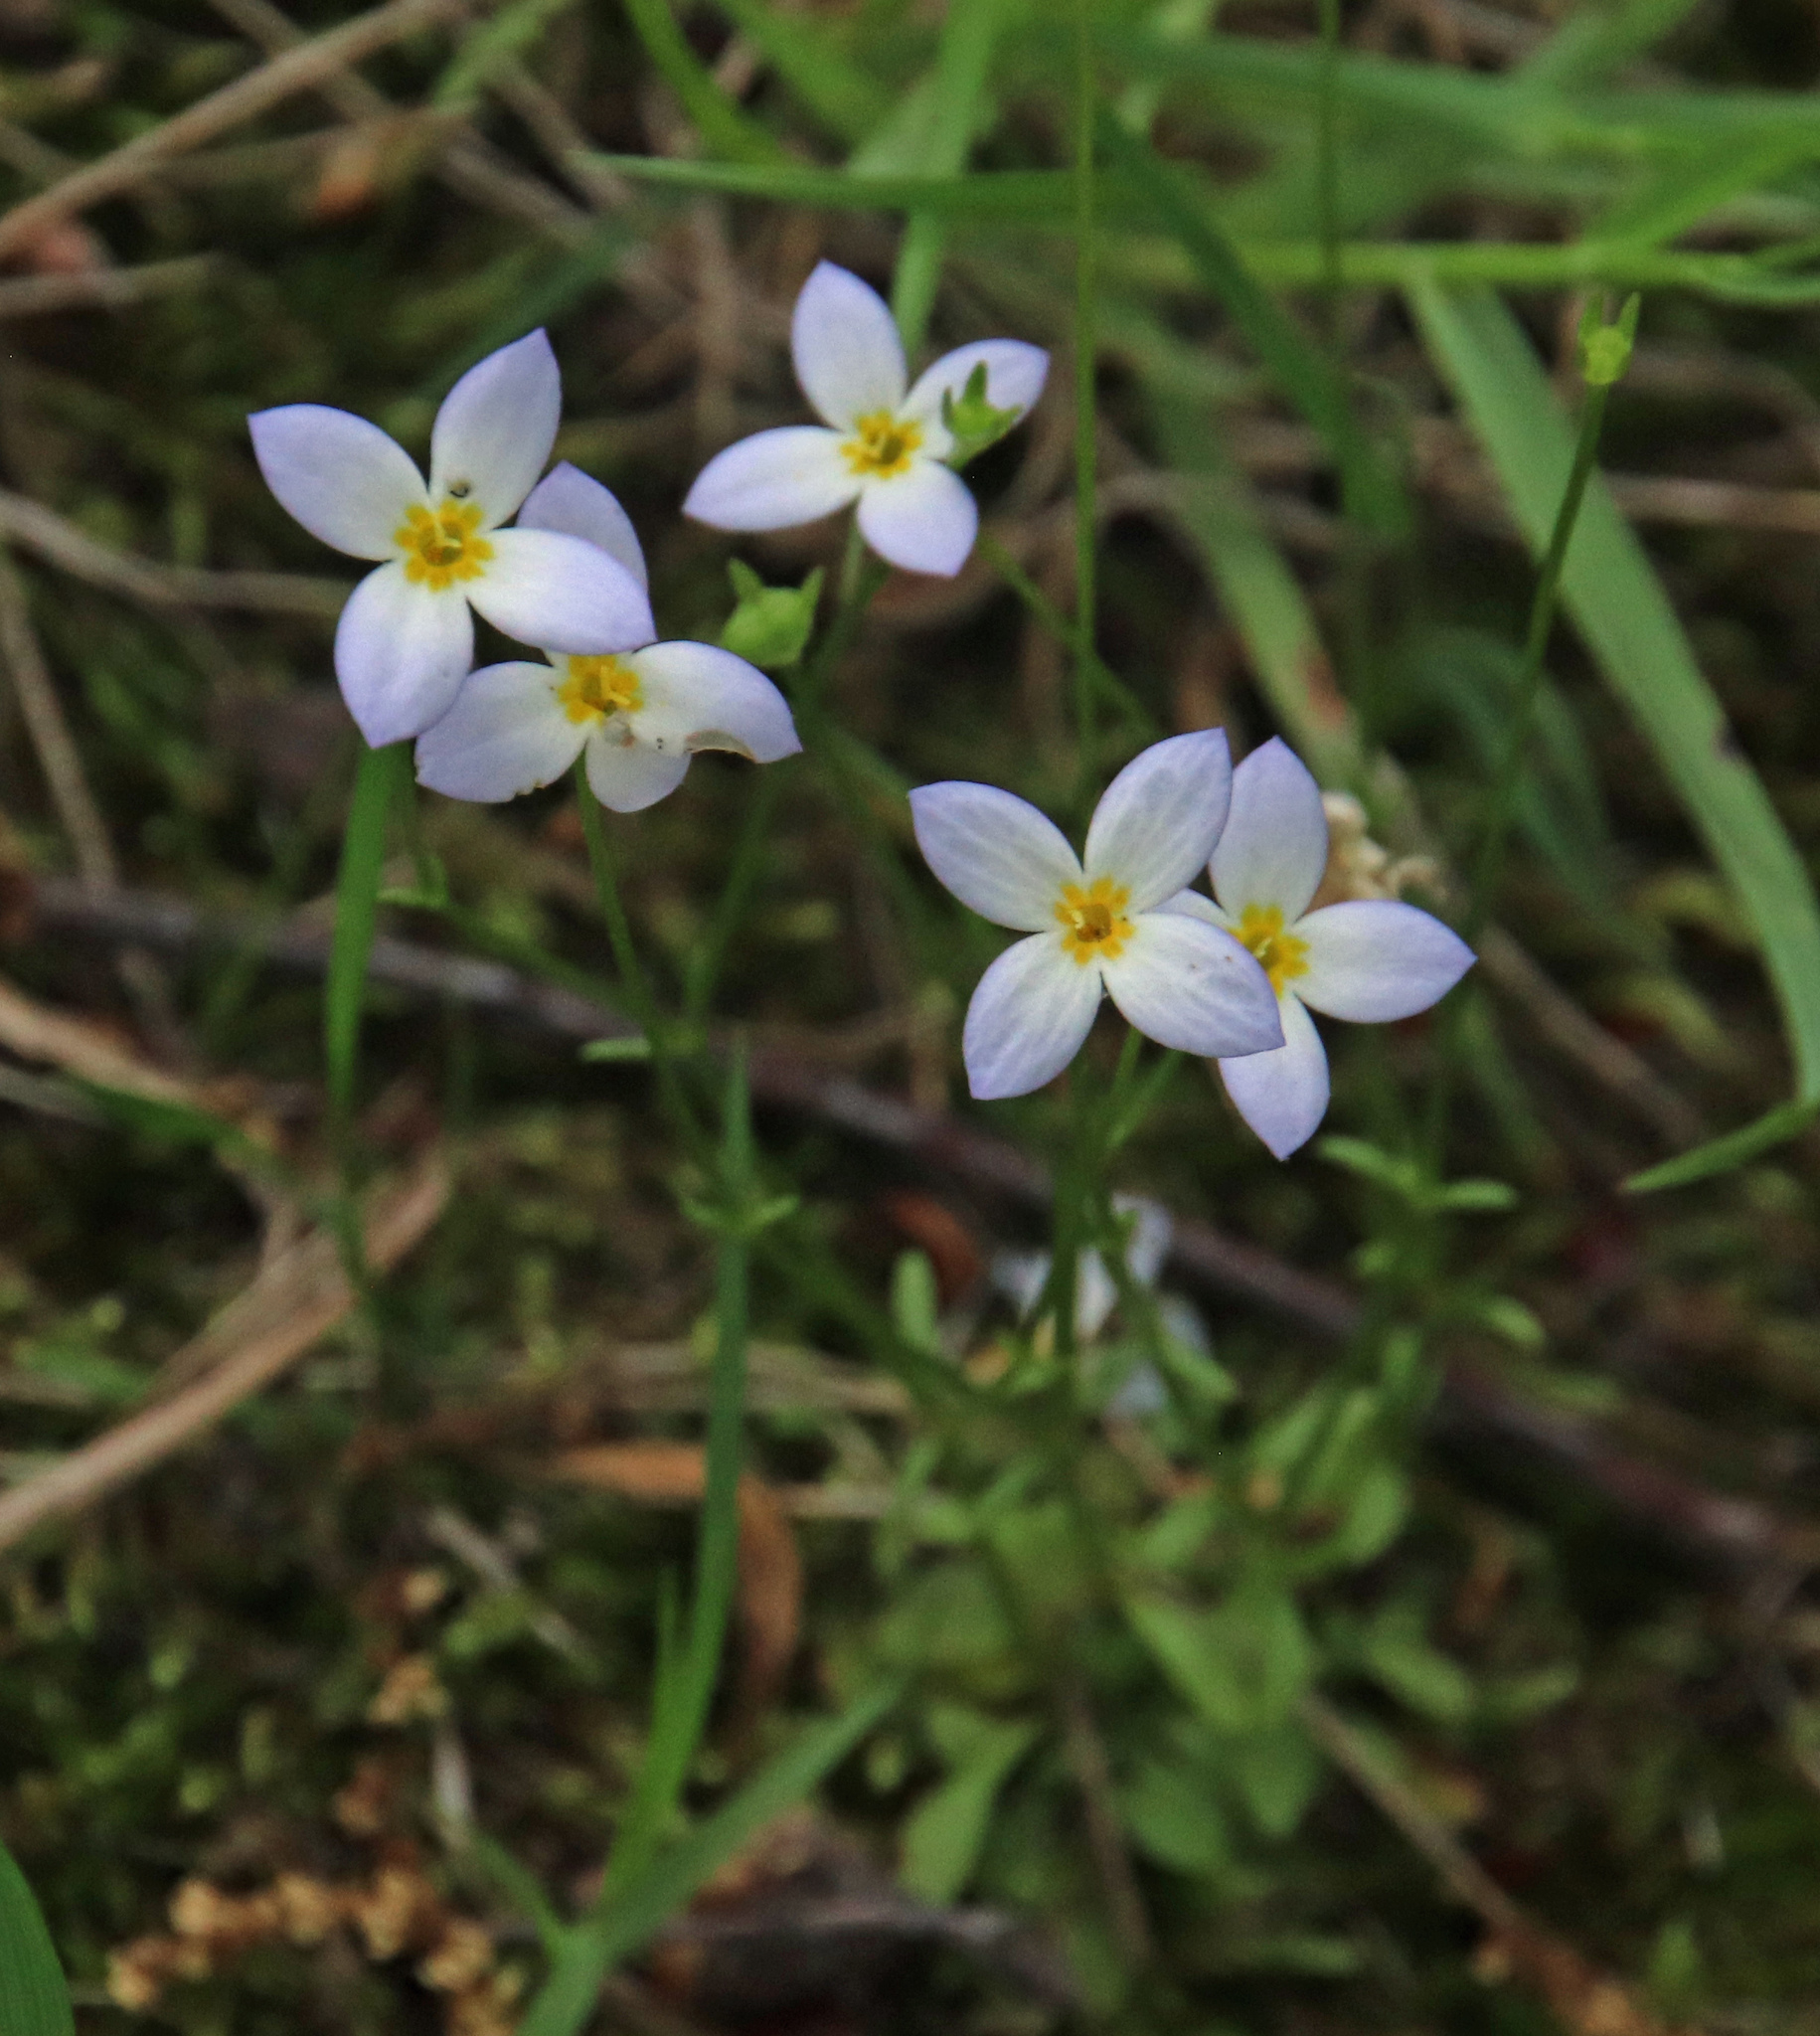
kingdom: Plantae
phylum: Tracheophyta
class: Magnoliopsida
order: Gentianales
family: Rubiaceae
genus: Houstonia
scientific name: Houstonia caerulea
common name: Bluets
